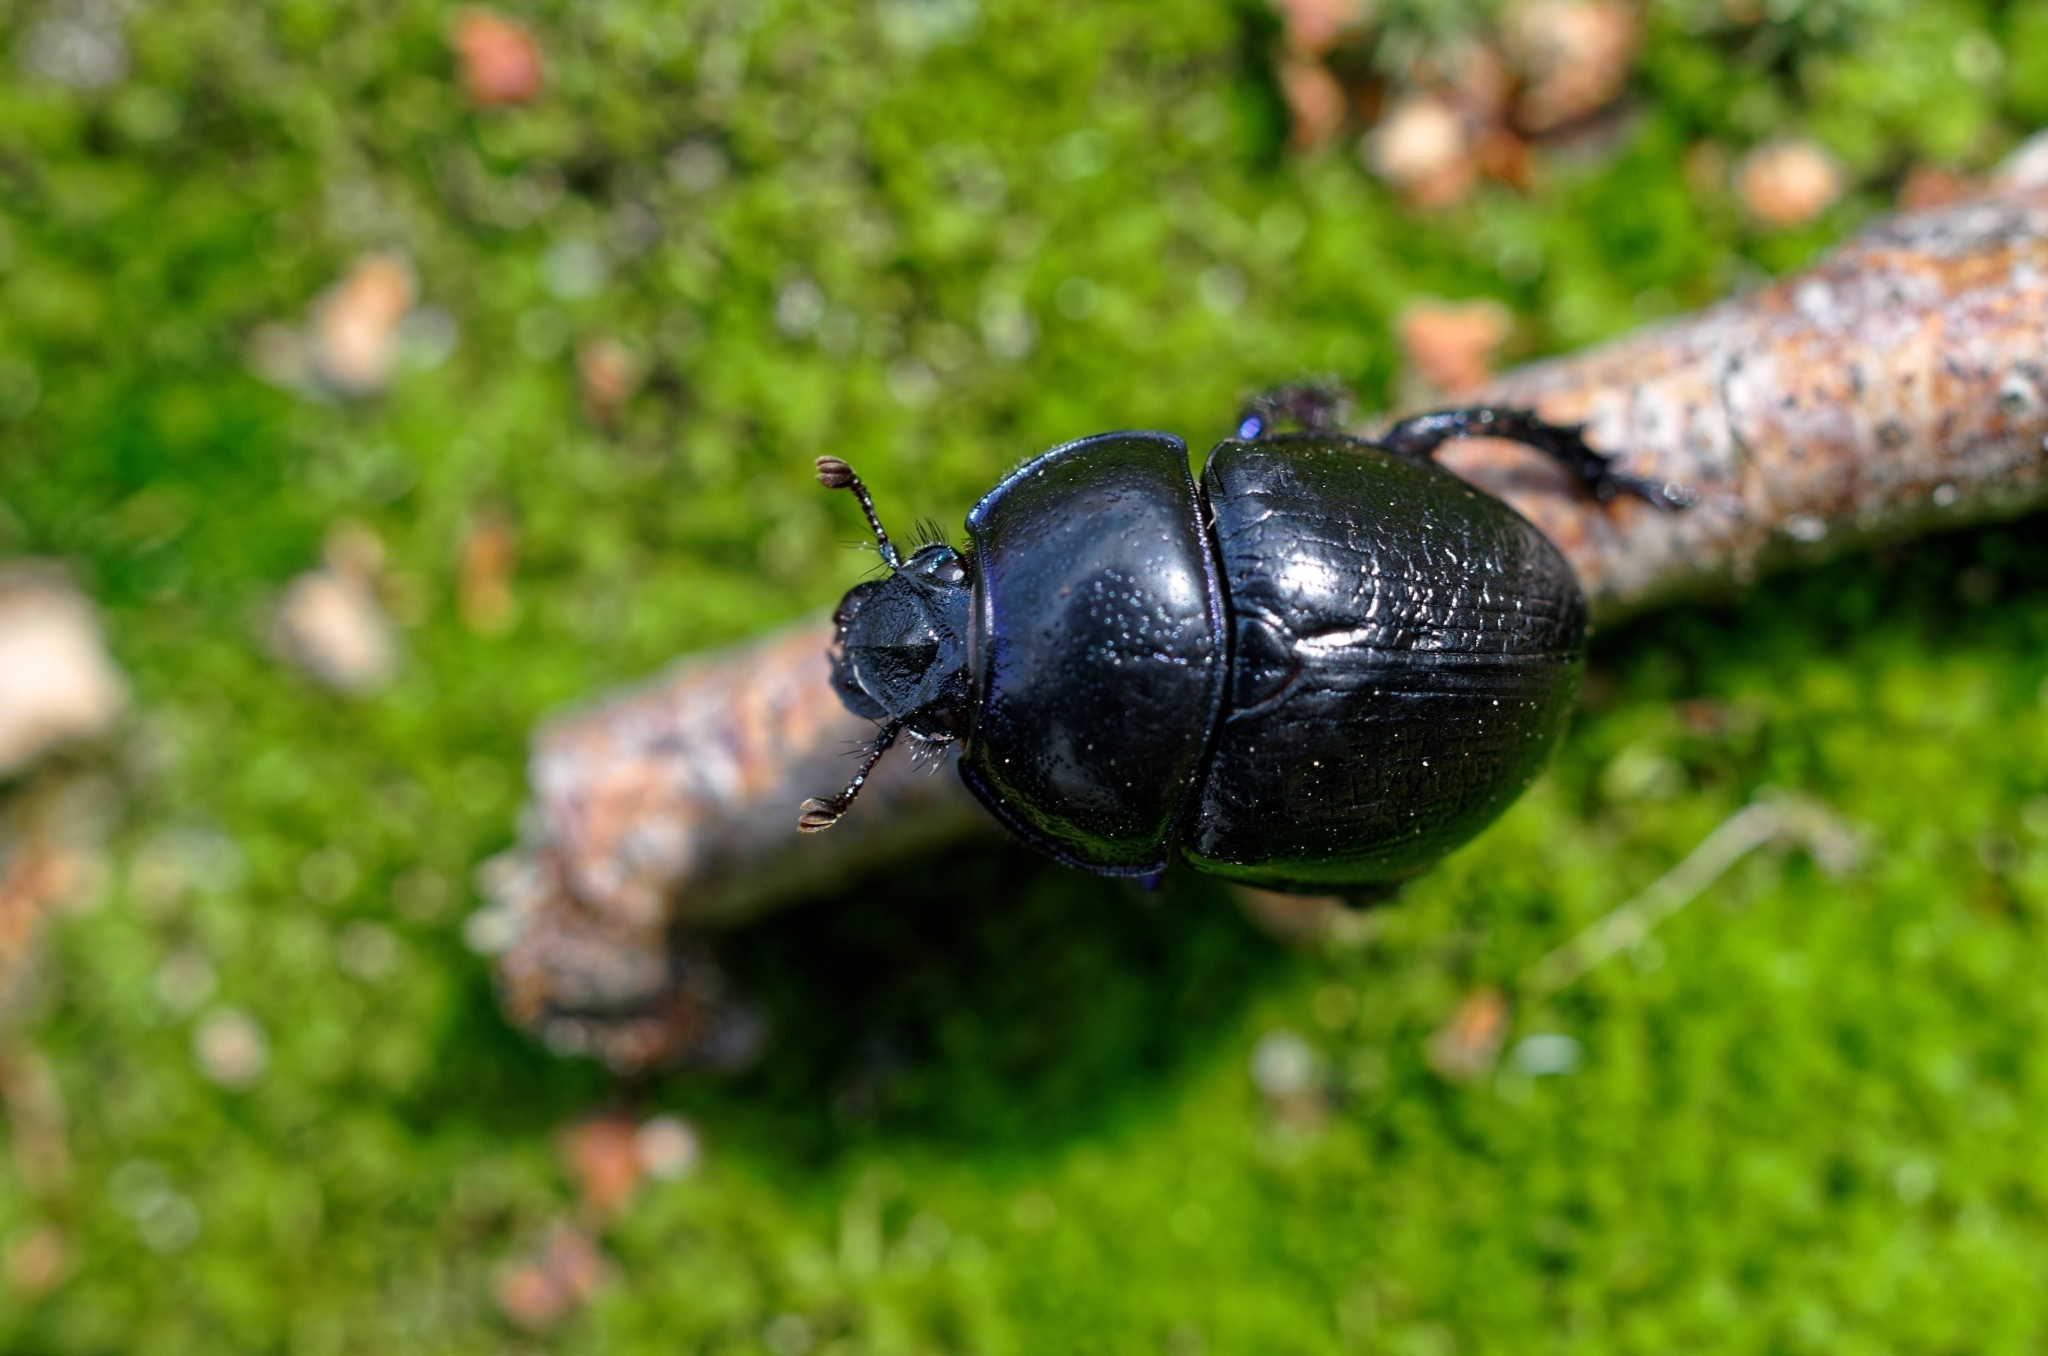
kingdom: Animalia
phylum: Arthropoda
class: Insecta
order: Coleoptera
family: Geotrupidae
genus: Anoplotrupes
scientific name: Anoplotrupes stercorosus
